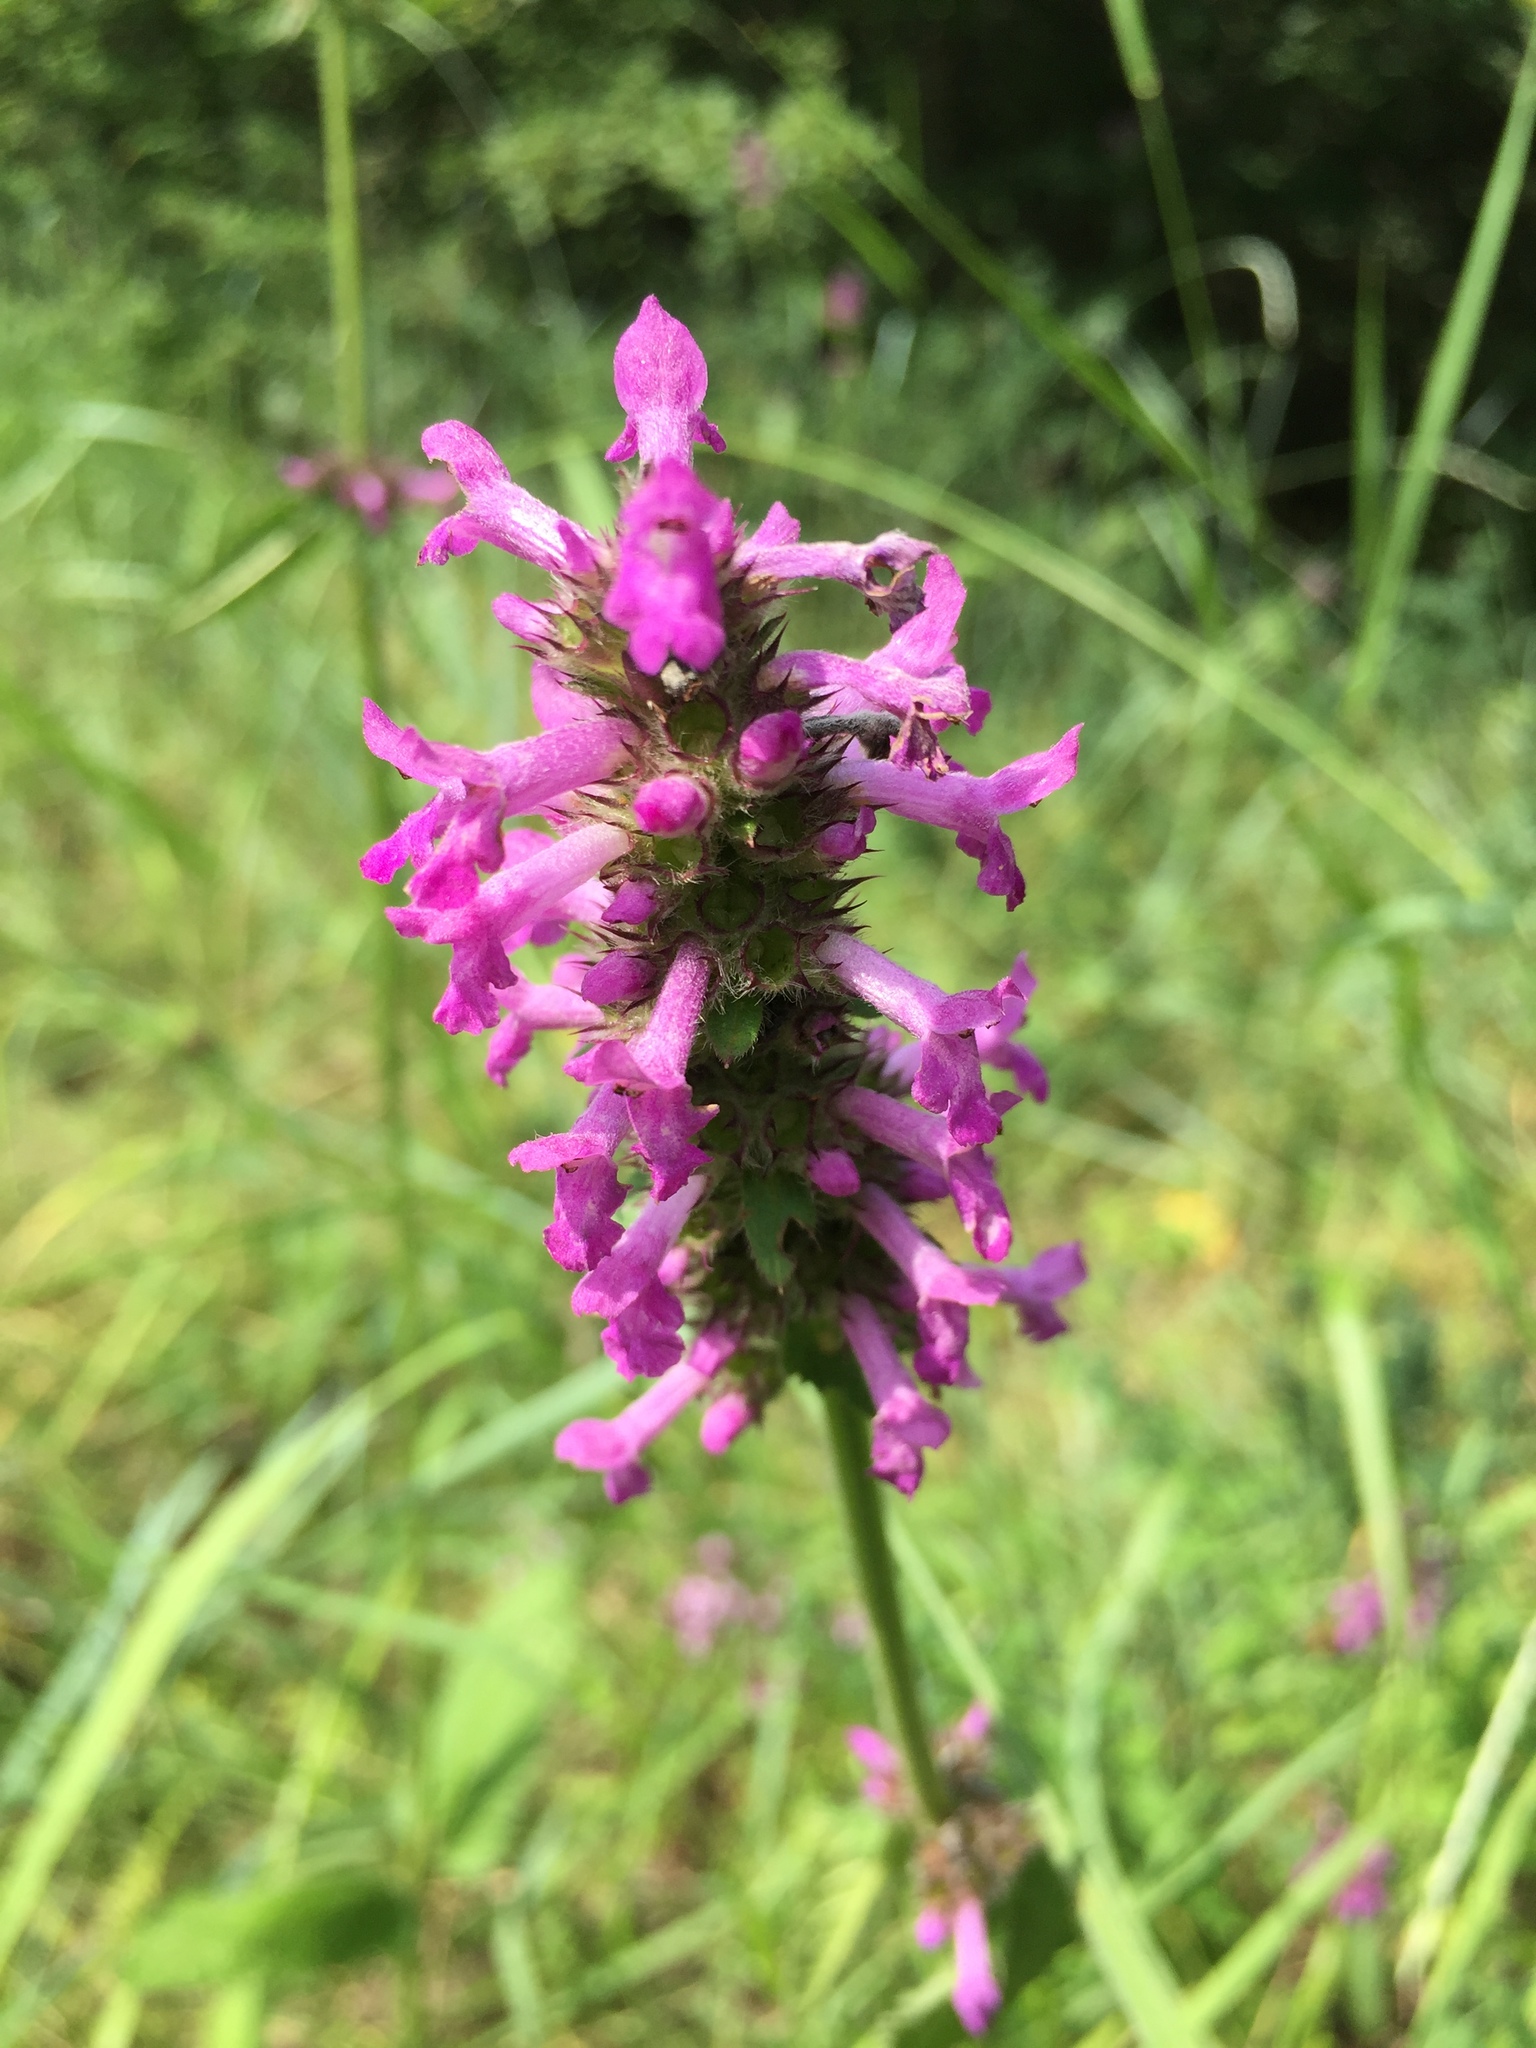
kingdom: Plantae
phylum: Tracheophyta
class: Magnoliopsida
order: Lamiales
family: Lamiaceae
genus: Betonica
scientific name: Betonica officinalis
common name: Bishop's-wort
